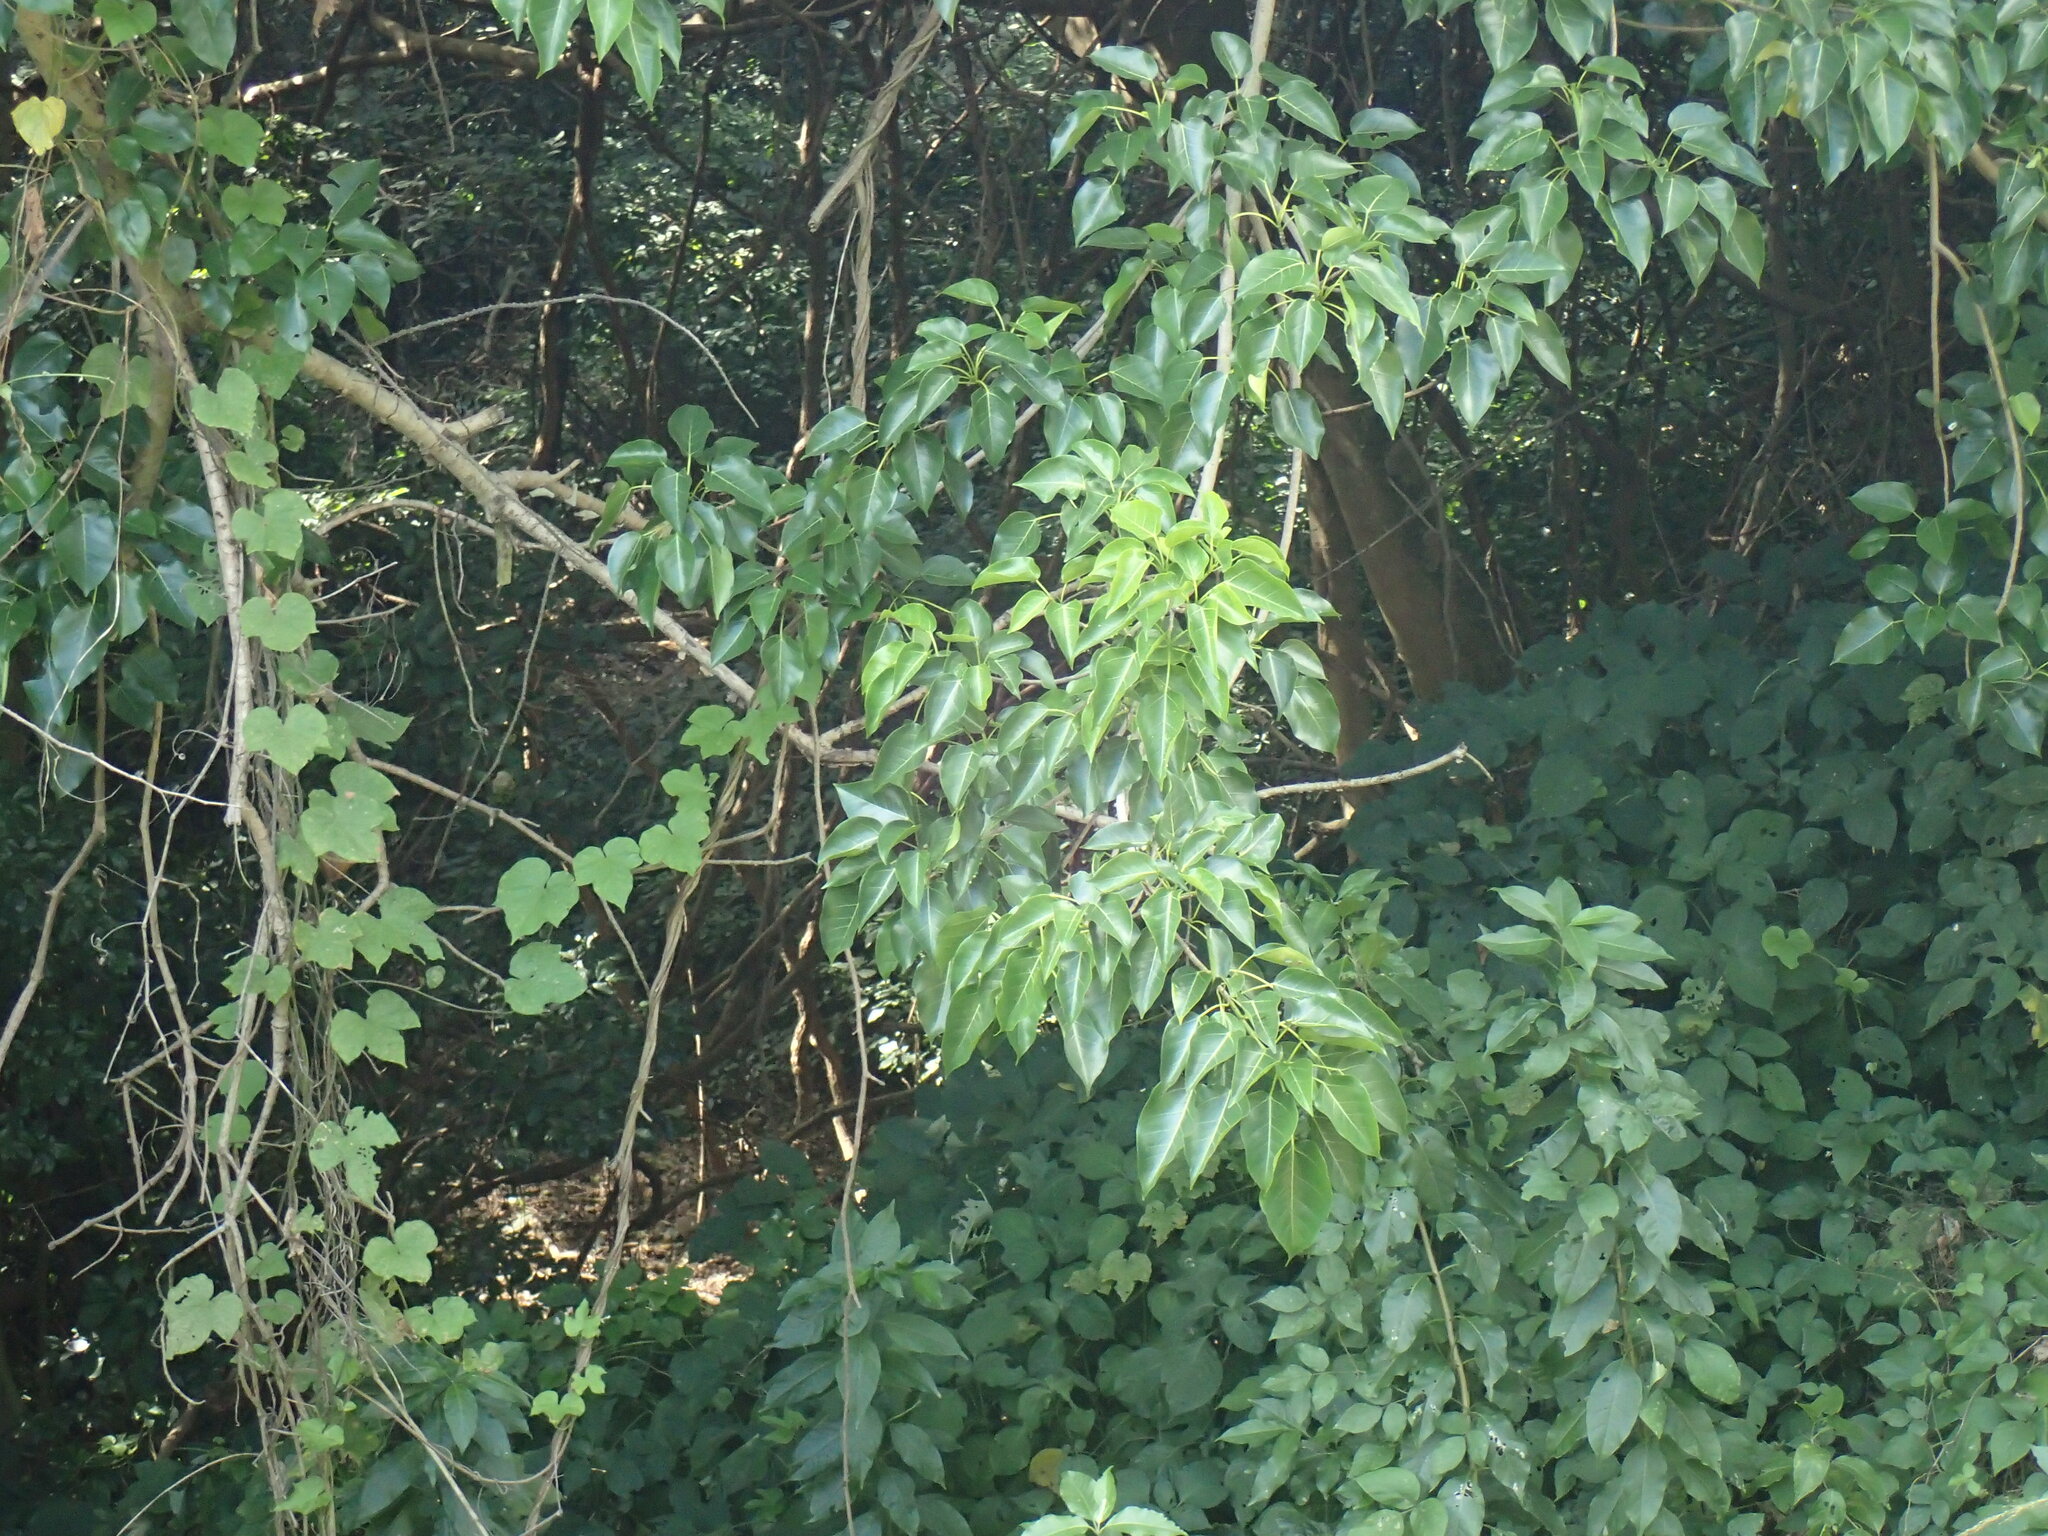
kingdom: Plantae
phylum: Tracheophyta
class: Magnoliopsida
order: Rosales
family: Moraceae
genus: Ficus
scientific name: Ficus polita
